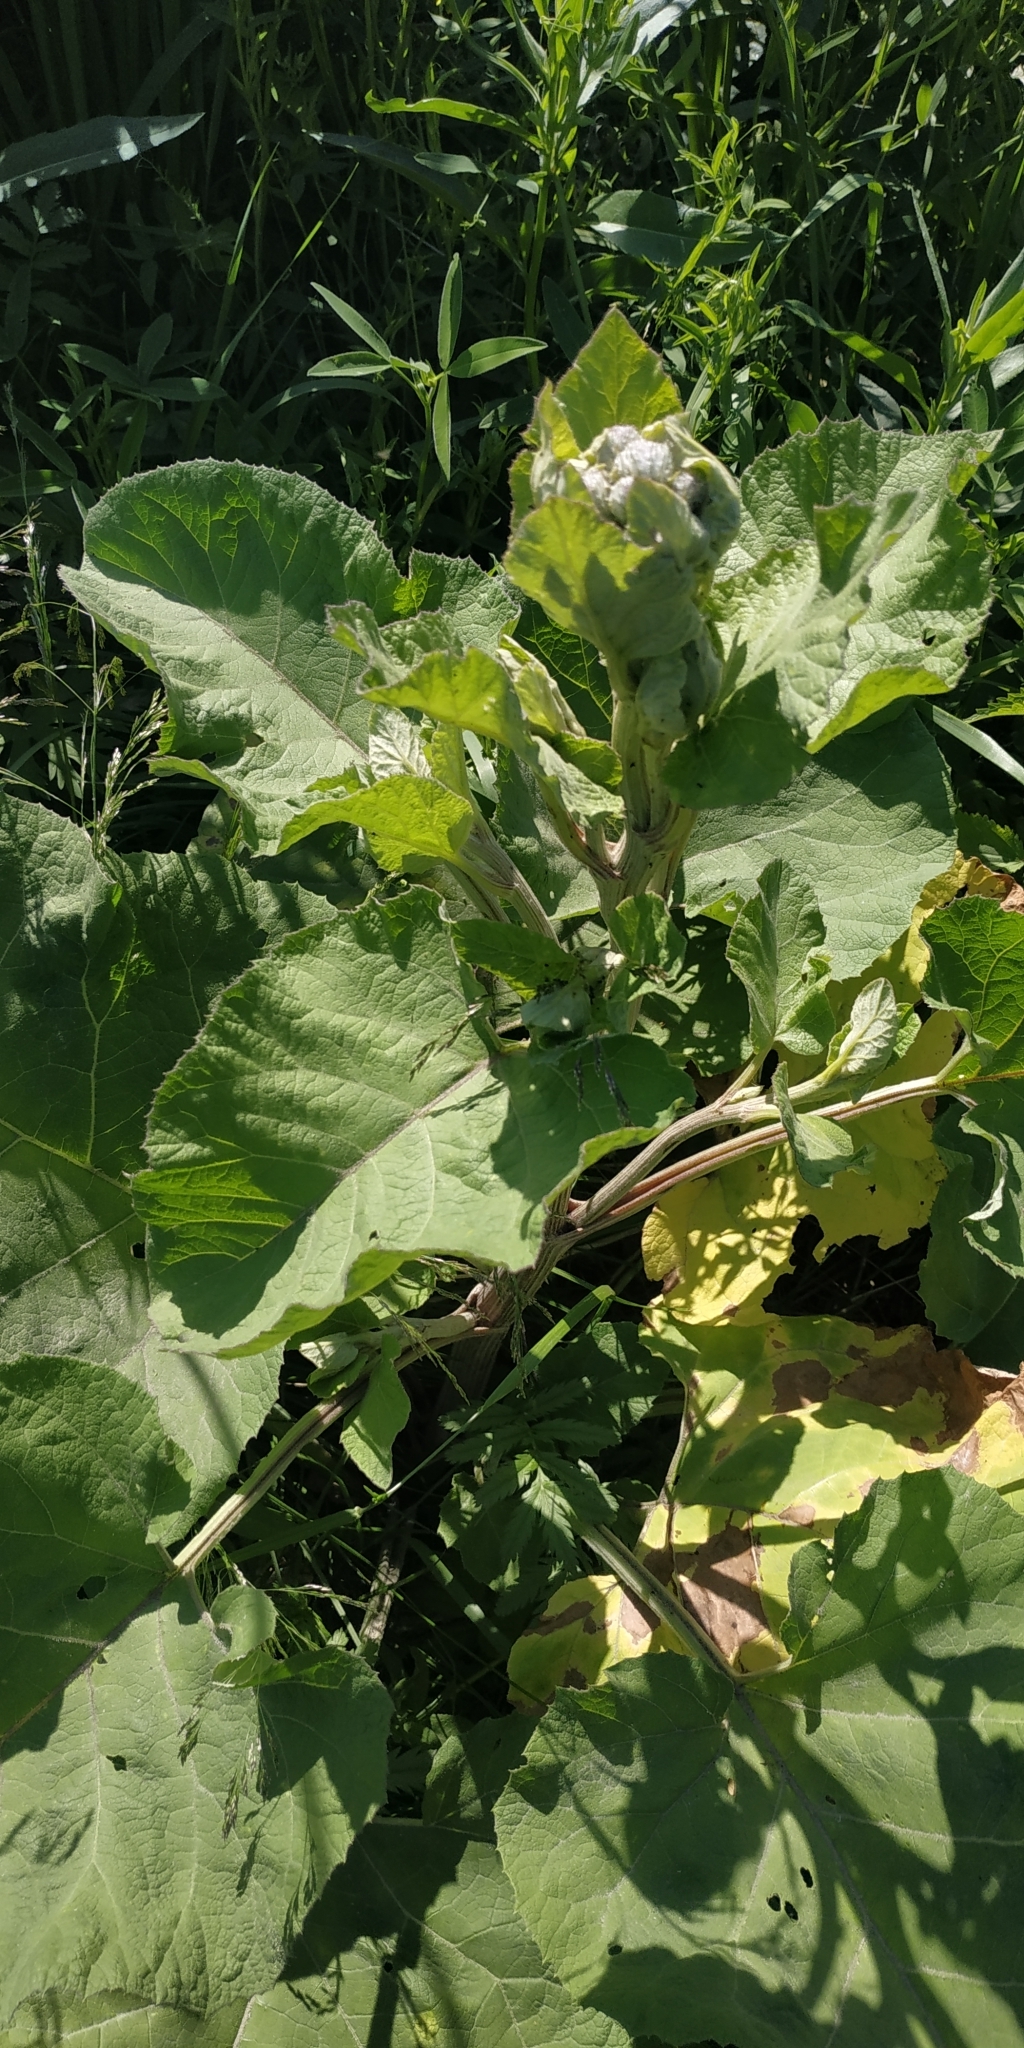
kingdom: Plantae
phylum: Tracheophyta
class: Magnoliopsida
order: Asterales
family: Asteraceae
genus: Arctium
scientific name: Arctium tomentosum
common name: Woolly burdock
